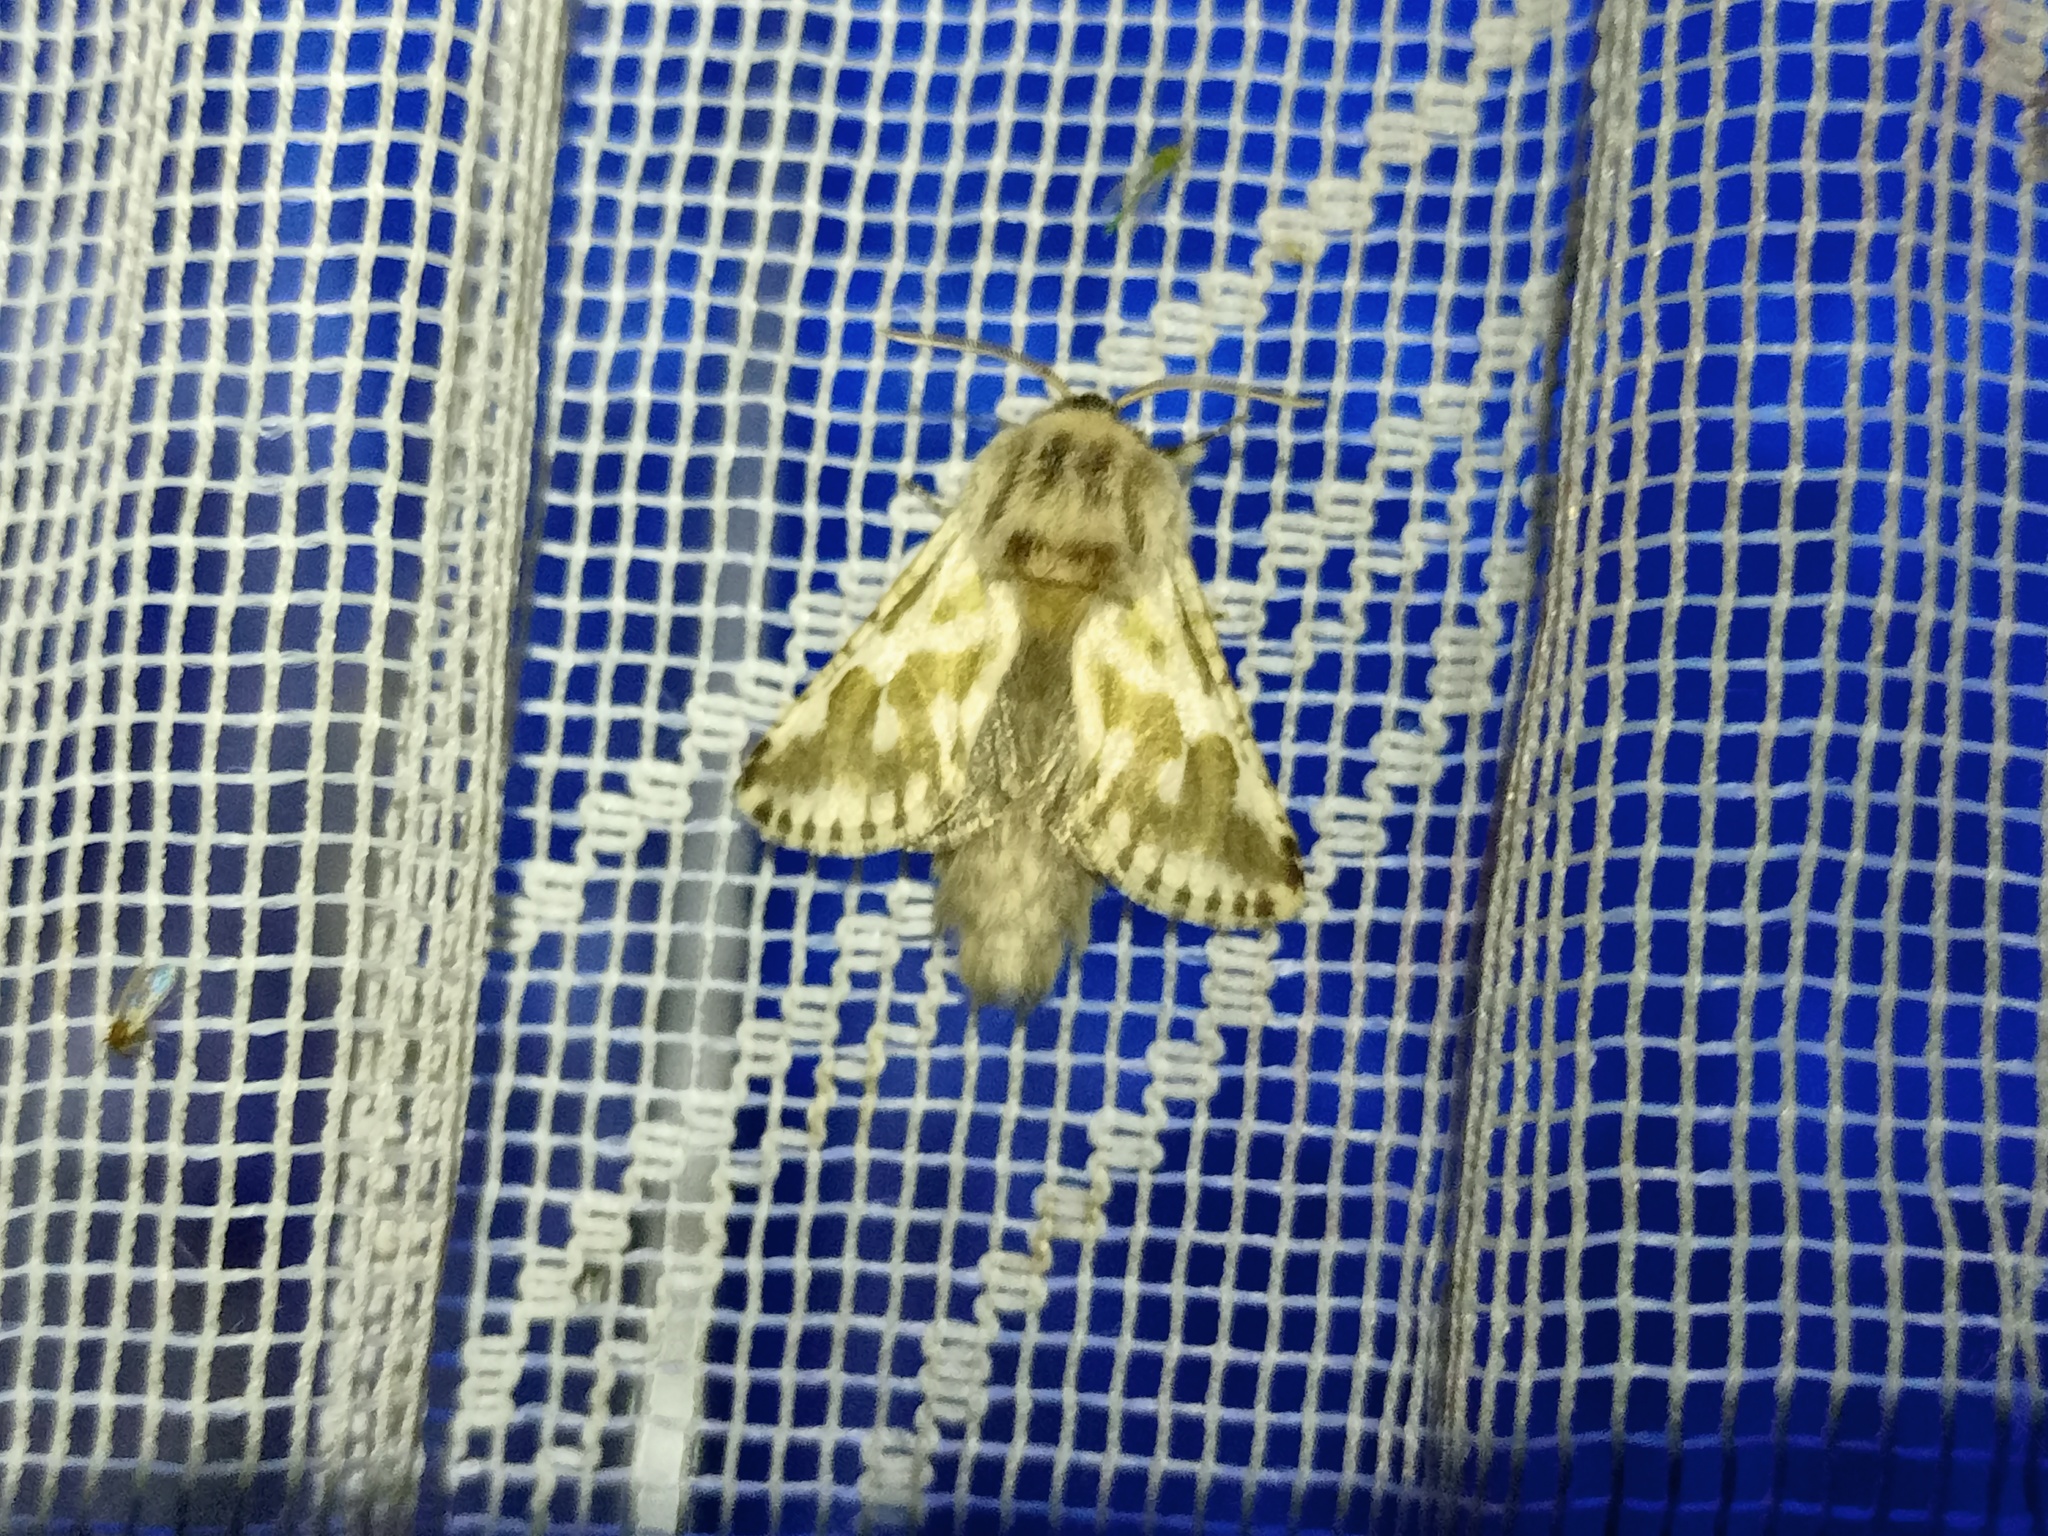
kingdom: Animalia
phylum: Arthropoda
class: Insecta
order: Lepidoptera
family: Cossidae
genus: Dyspessa
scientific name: Dyspessa ulula
